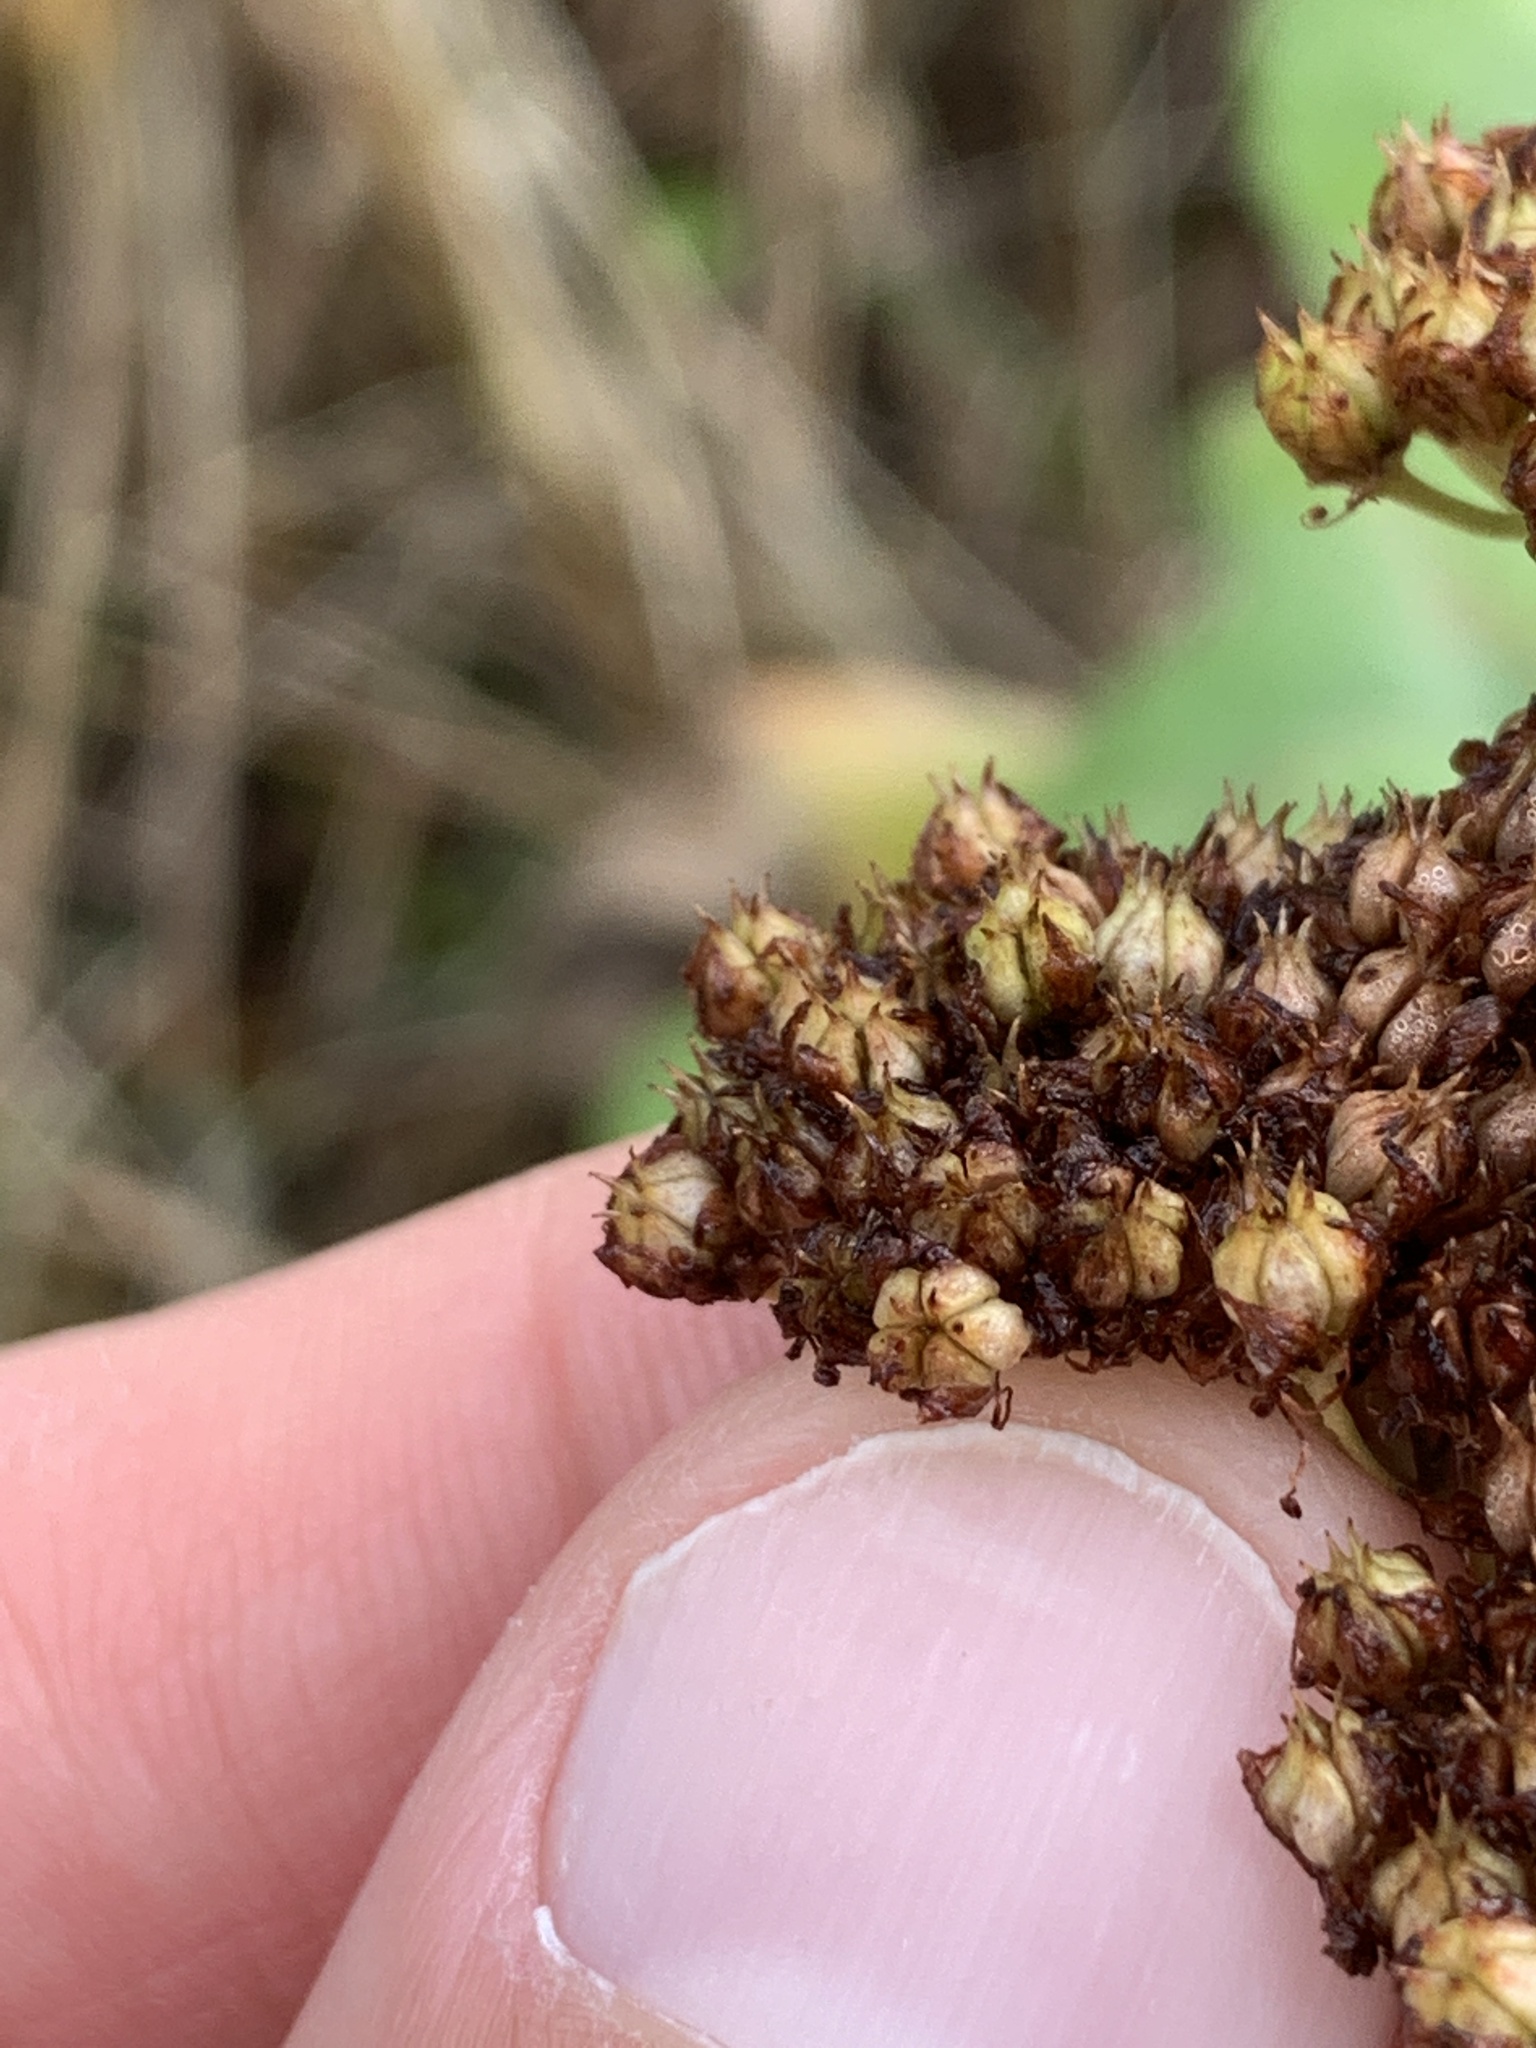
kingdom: Plantae
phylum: Tracheophyta
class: Magnoliopsida
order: Saxifragales
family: Crassulaceae
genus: Hylotelephium
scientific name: Hylotelephium maximum
